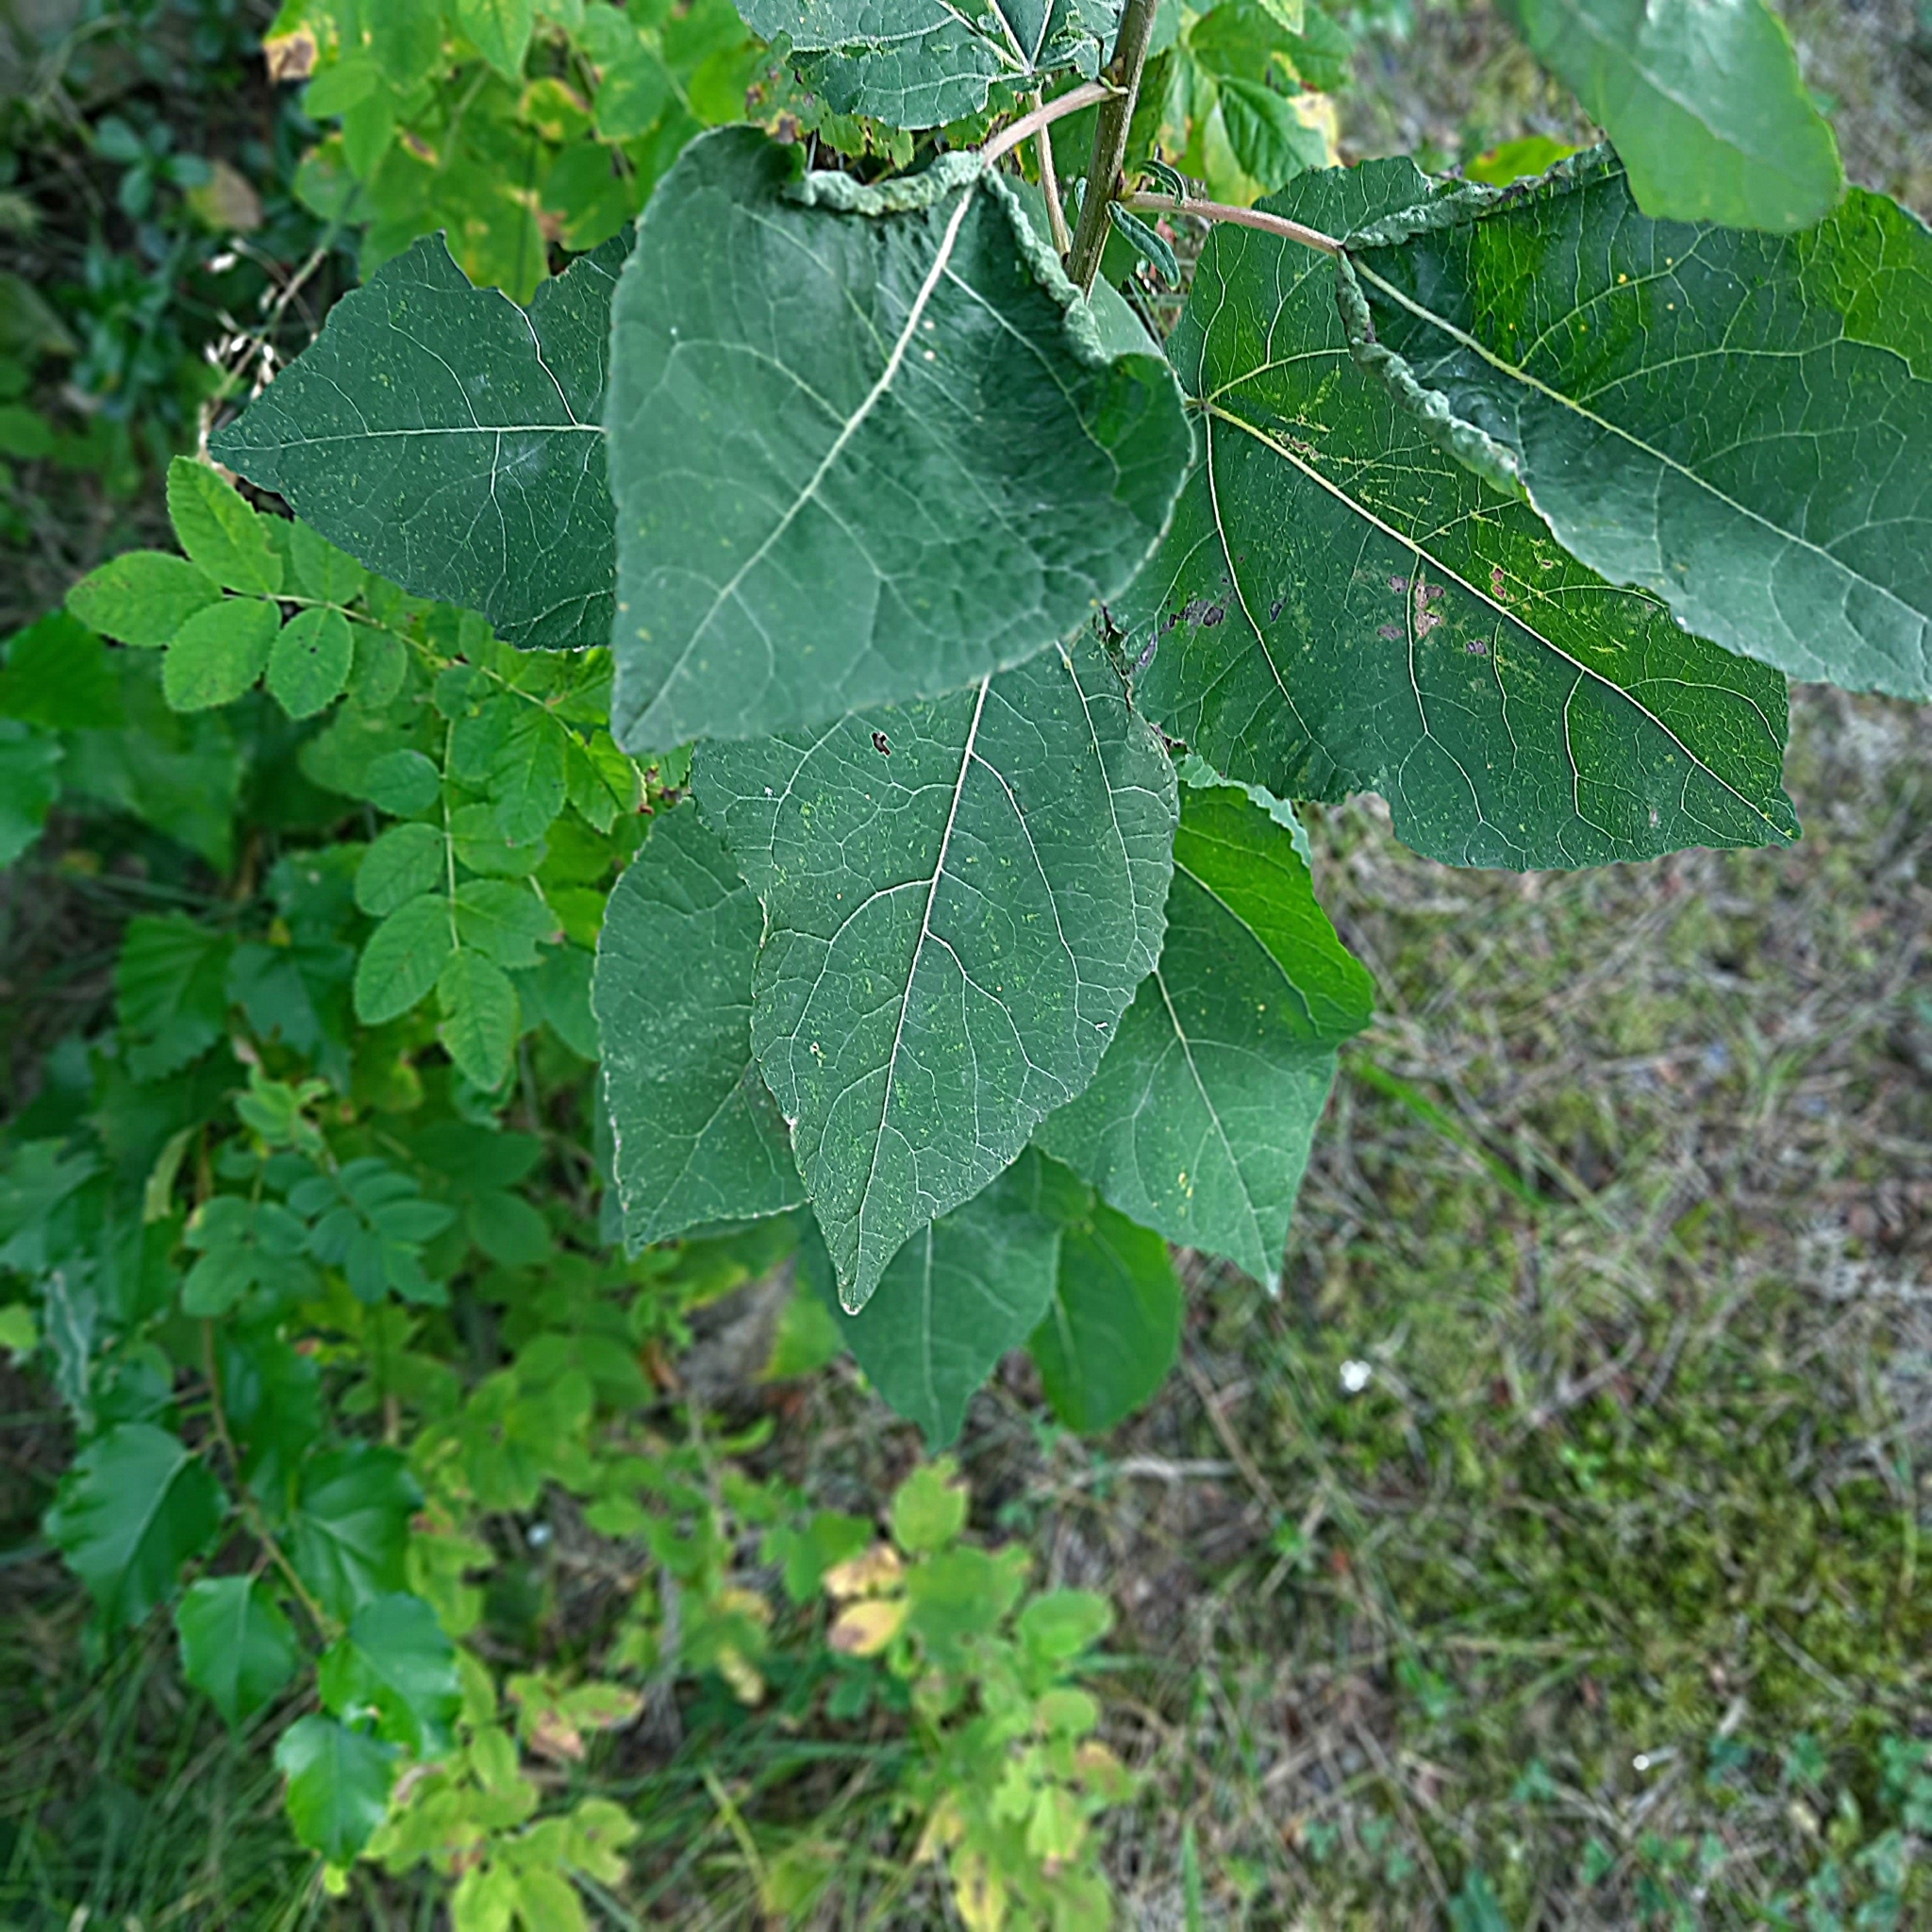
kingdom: Plantae
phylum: Tracheophyta
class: Magnoliopsida
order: Malpighiales
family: Salicaceae
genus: Populus
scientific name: Populus tremula
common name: European aspen
